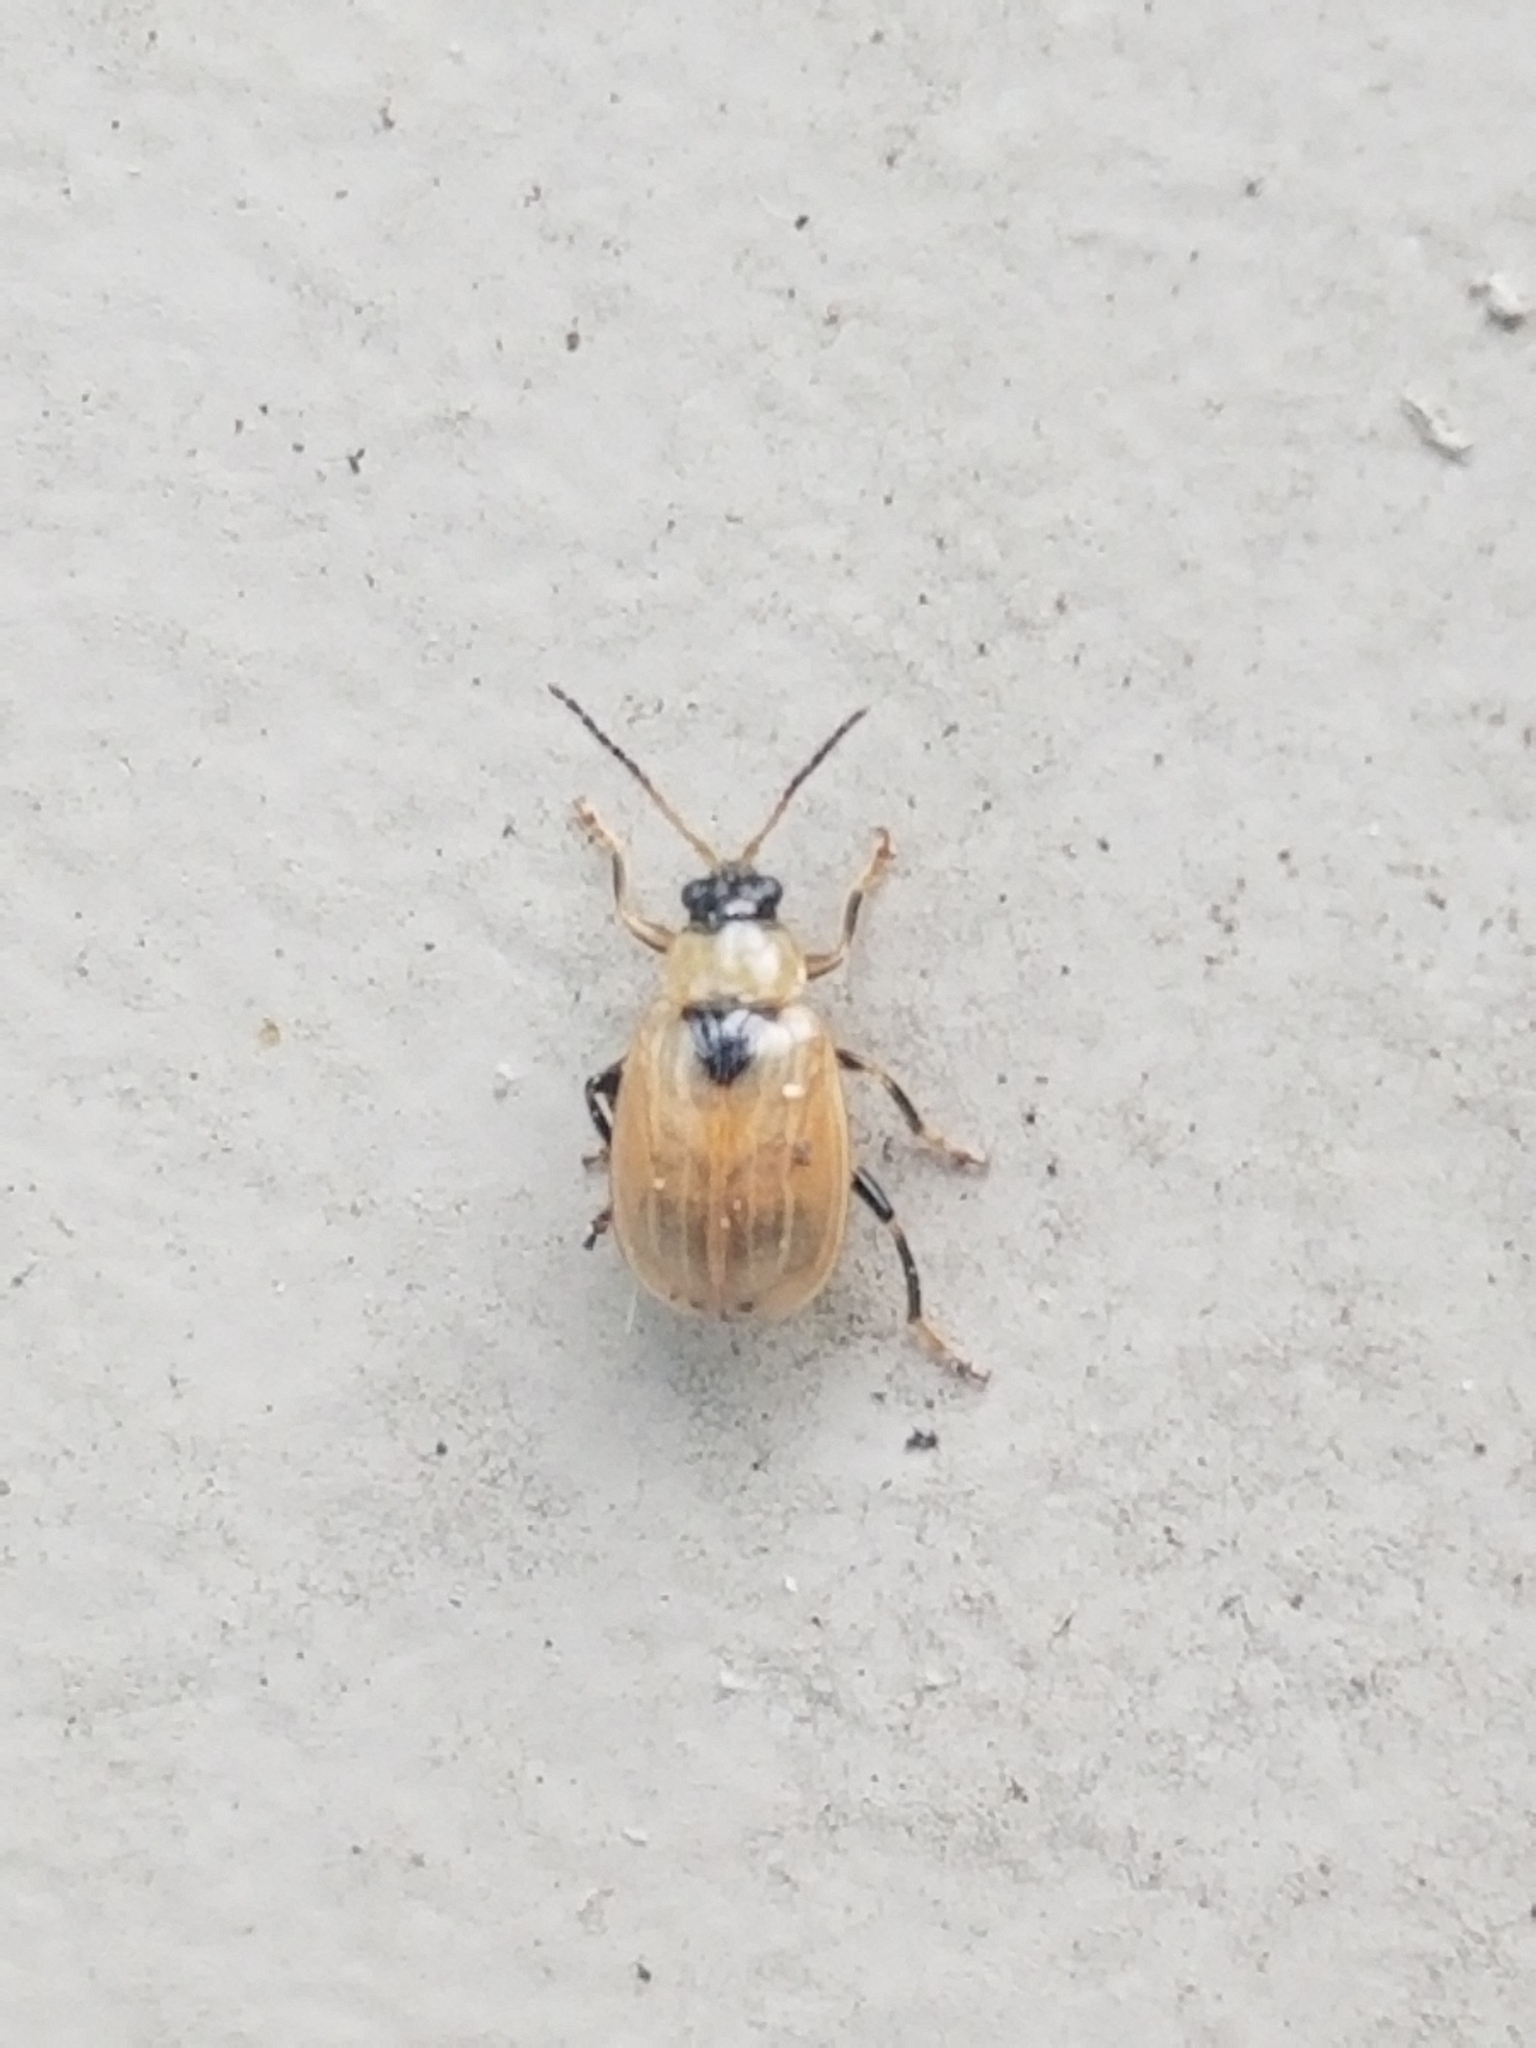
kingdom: Animalia
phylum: Arthropoda
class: Insecta
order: Coleoptera
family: Chrysomelidae
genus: Cerotoma
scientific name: Cerotoma trifurcata
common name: Bean leaf beetle
